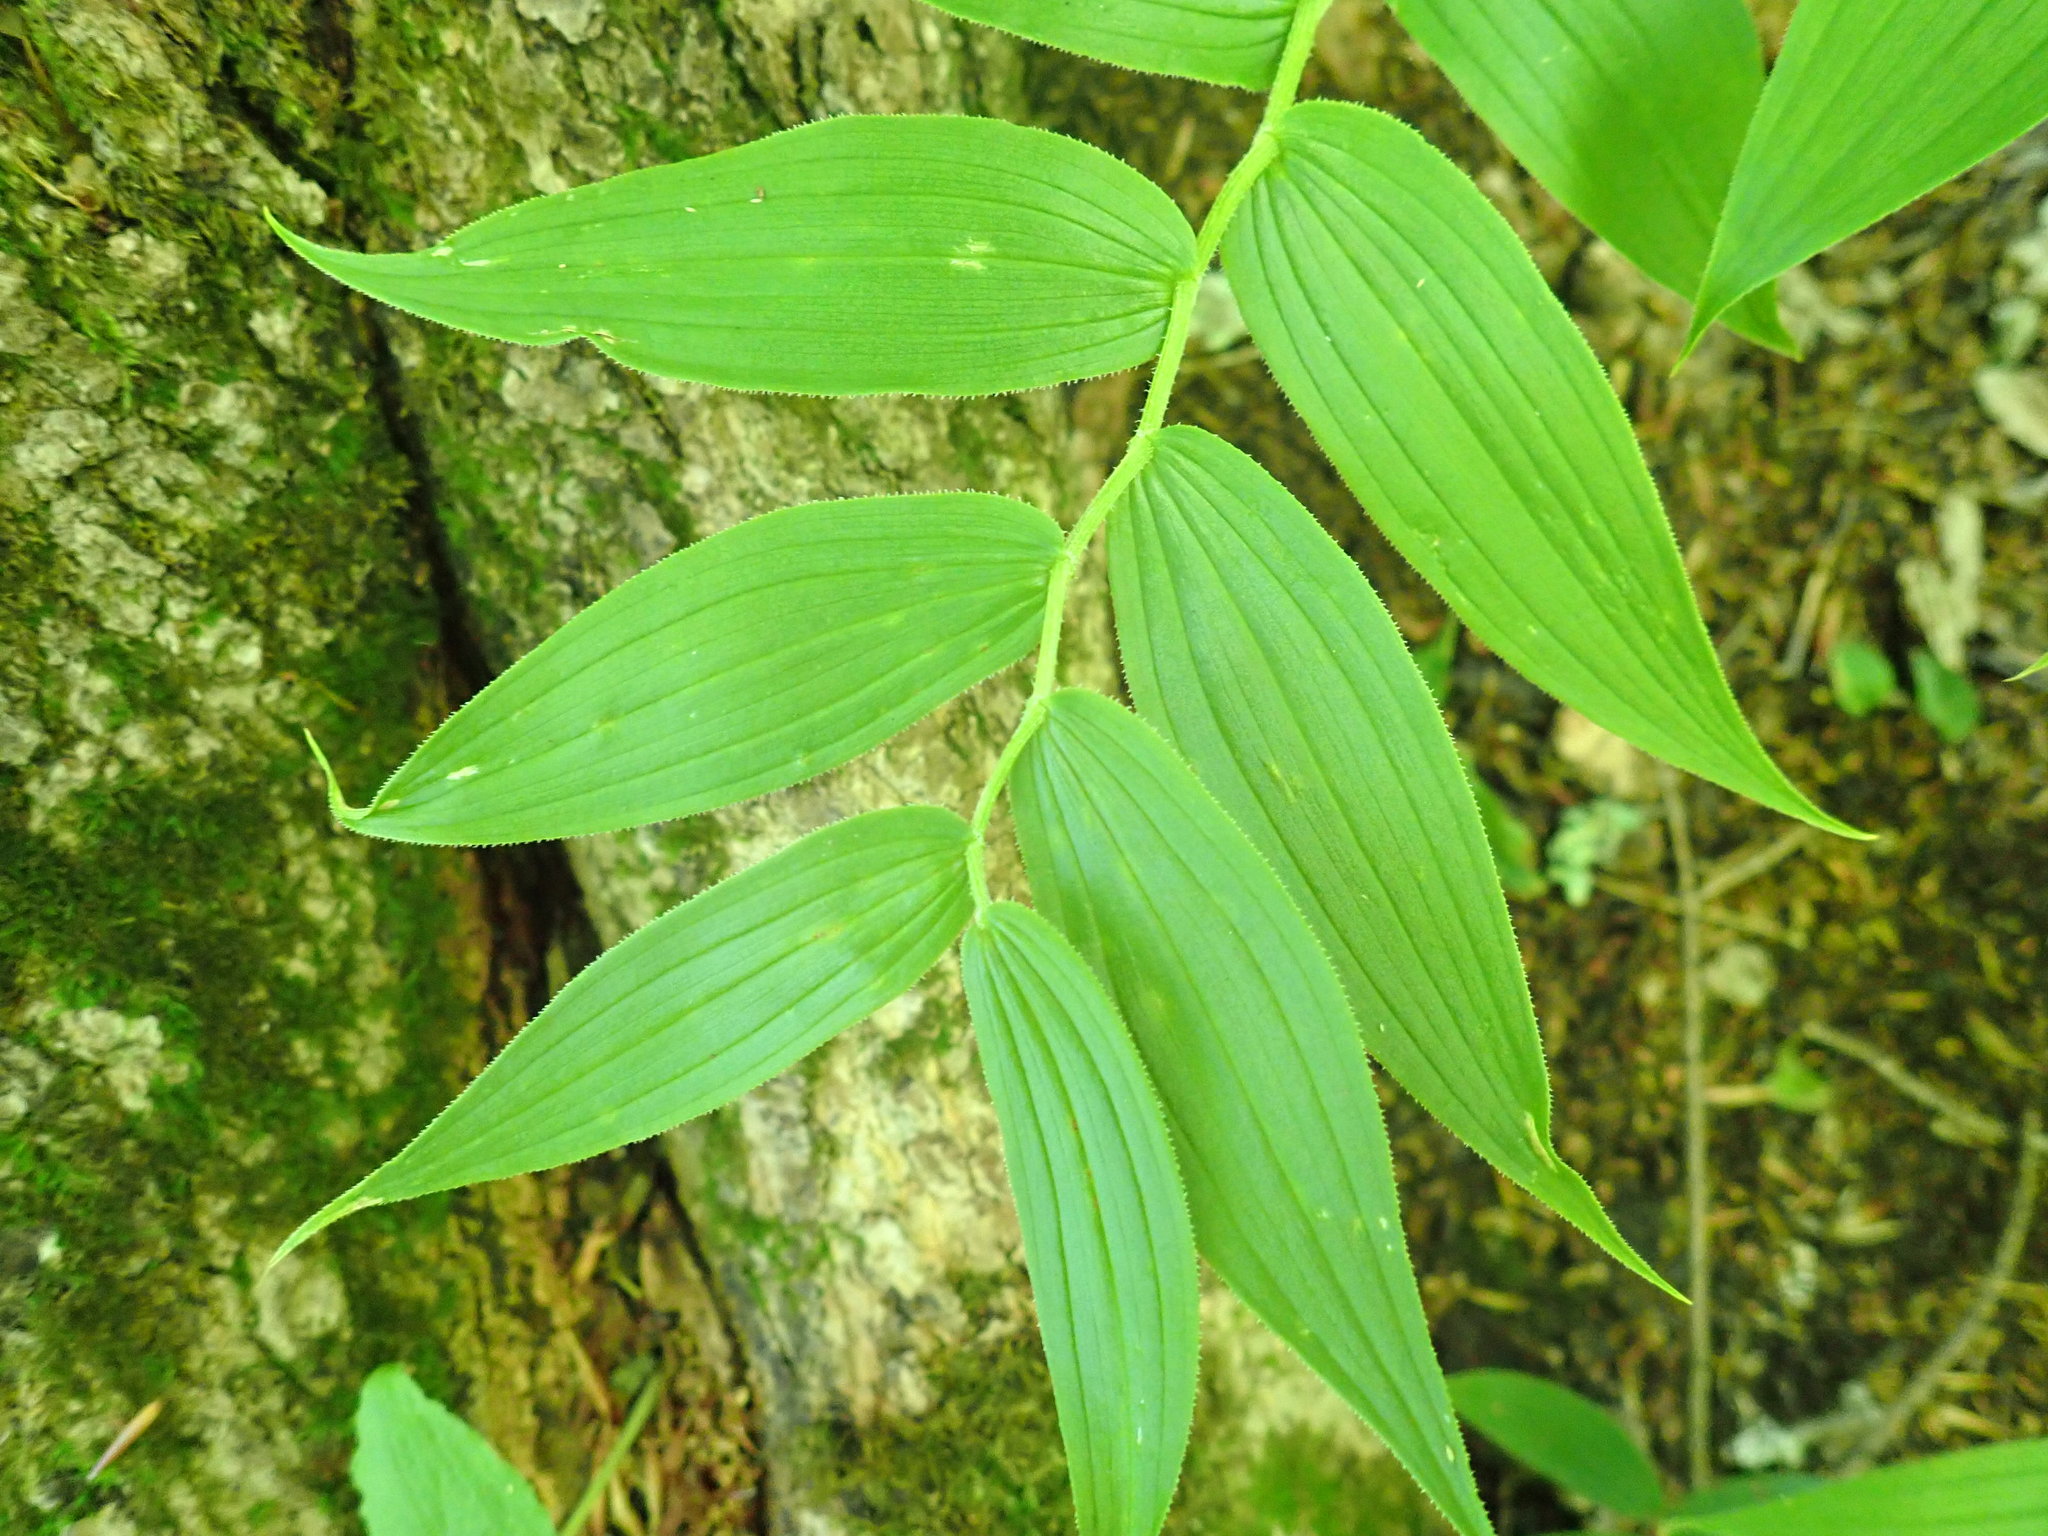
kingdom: Plantae
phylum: Tracheophyta
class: Liliopsida
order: Liliales
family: Liliaceae
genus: Streptopus
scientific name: Streptopus lanceolatus
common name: Rose mandarin
